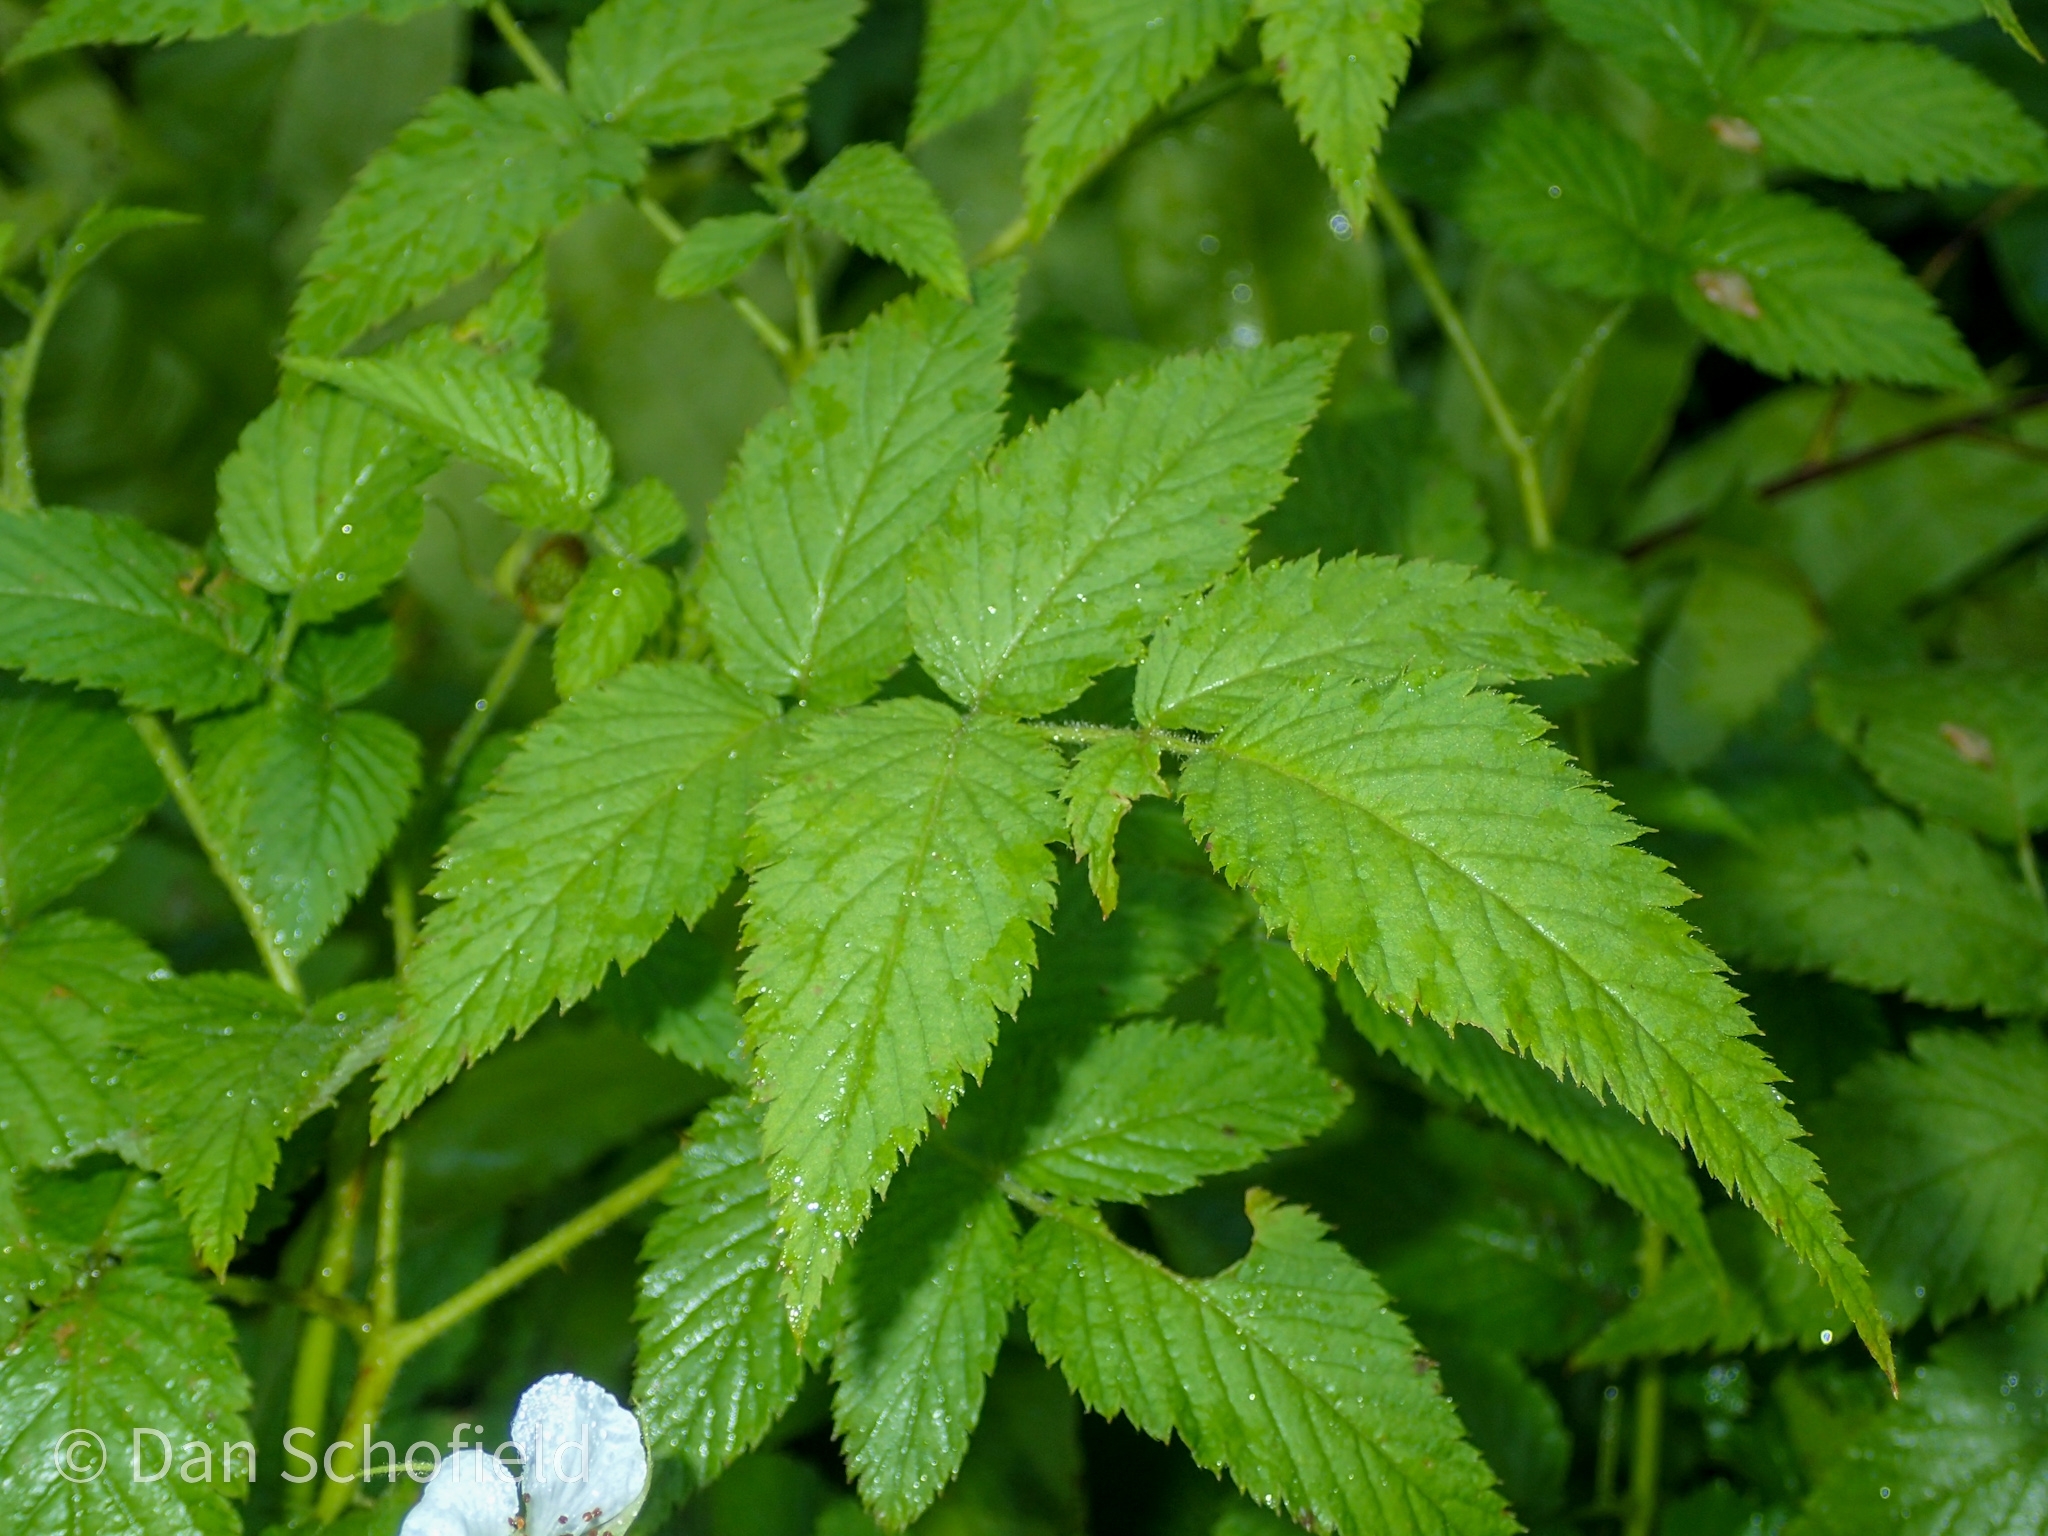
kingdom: Plantae
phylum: Tracheophyta
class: Magnoliopsida
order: Rosales
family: Rosaceae
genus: Rubus
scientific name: Rubus rosifolius
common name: Roseleaf raspberry
